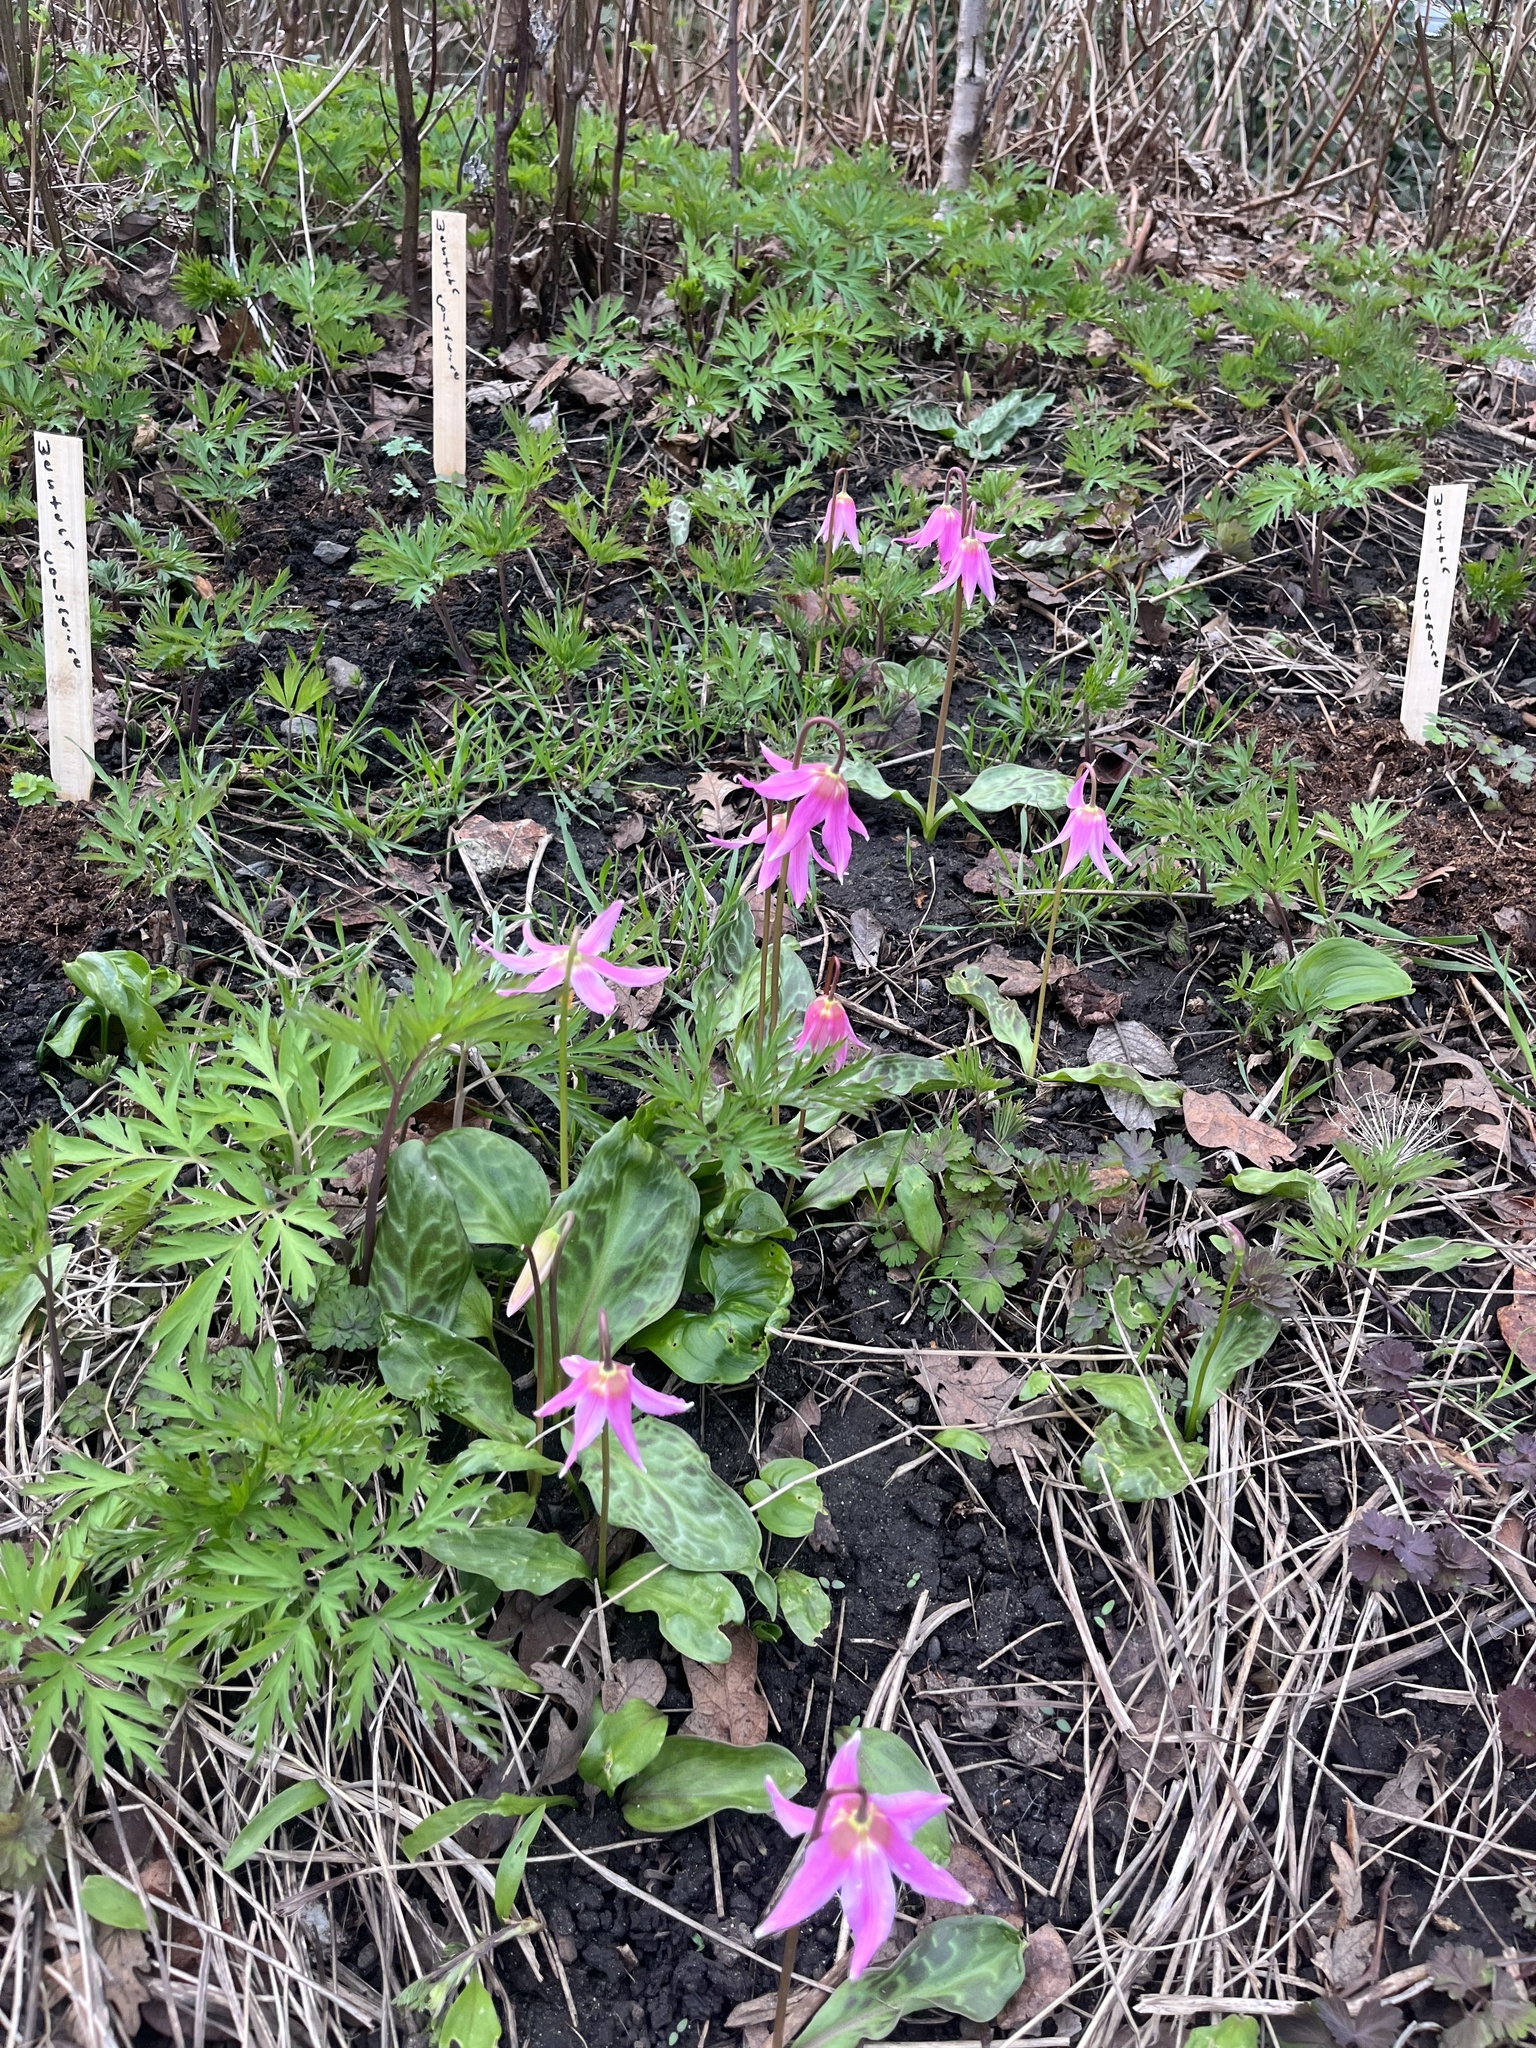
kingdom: Plantae
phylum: Tracheophyta
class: Liliopsida
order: Liliales
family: Liliaceae
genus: Erythronium
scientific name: Erythronium revolutum
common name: Pink fawn-lily
